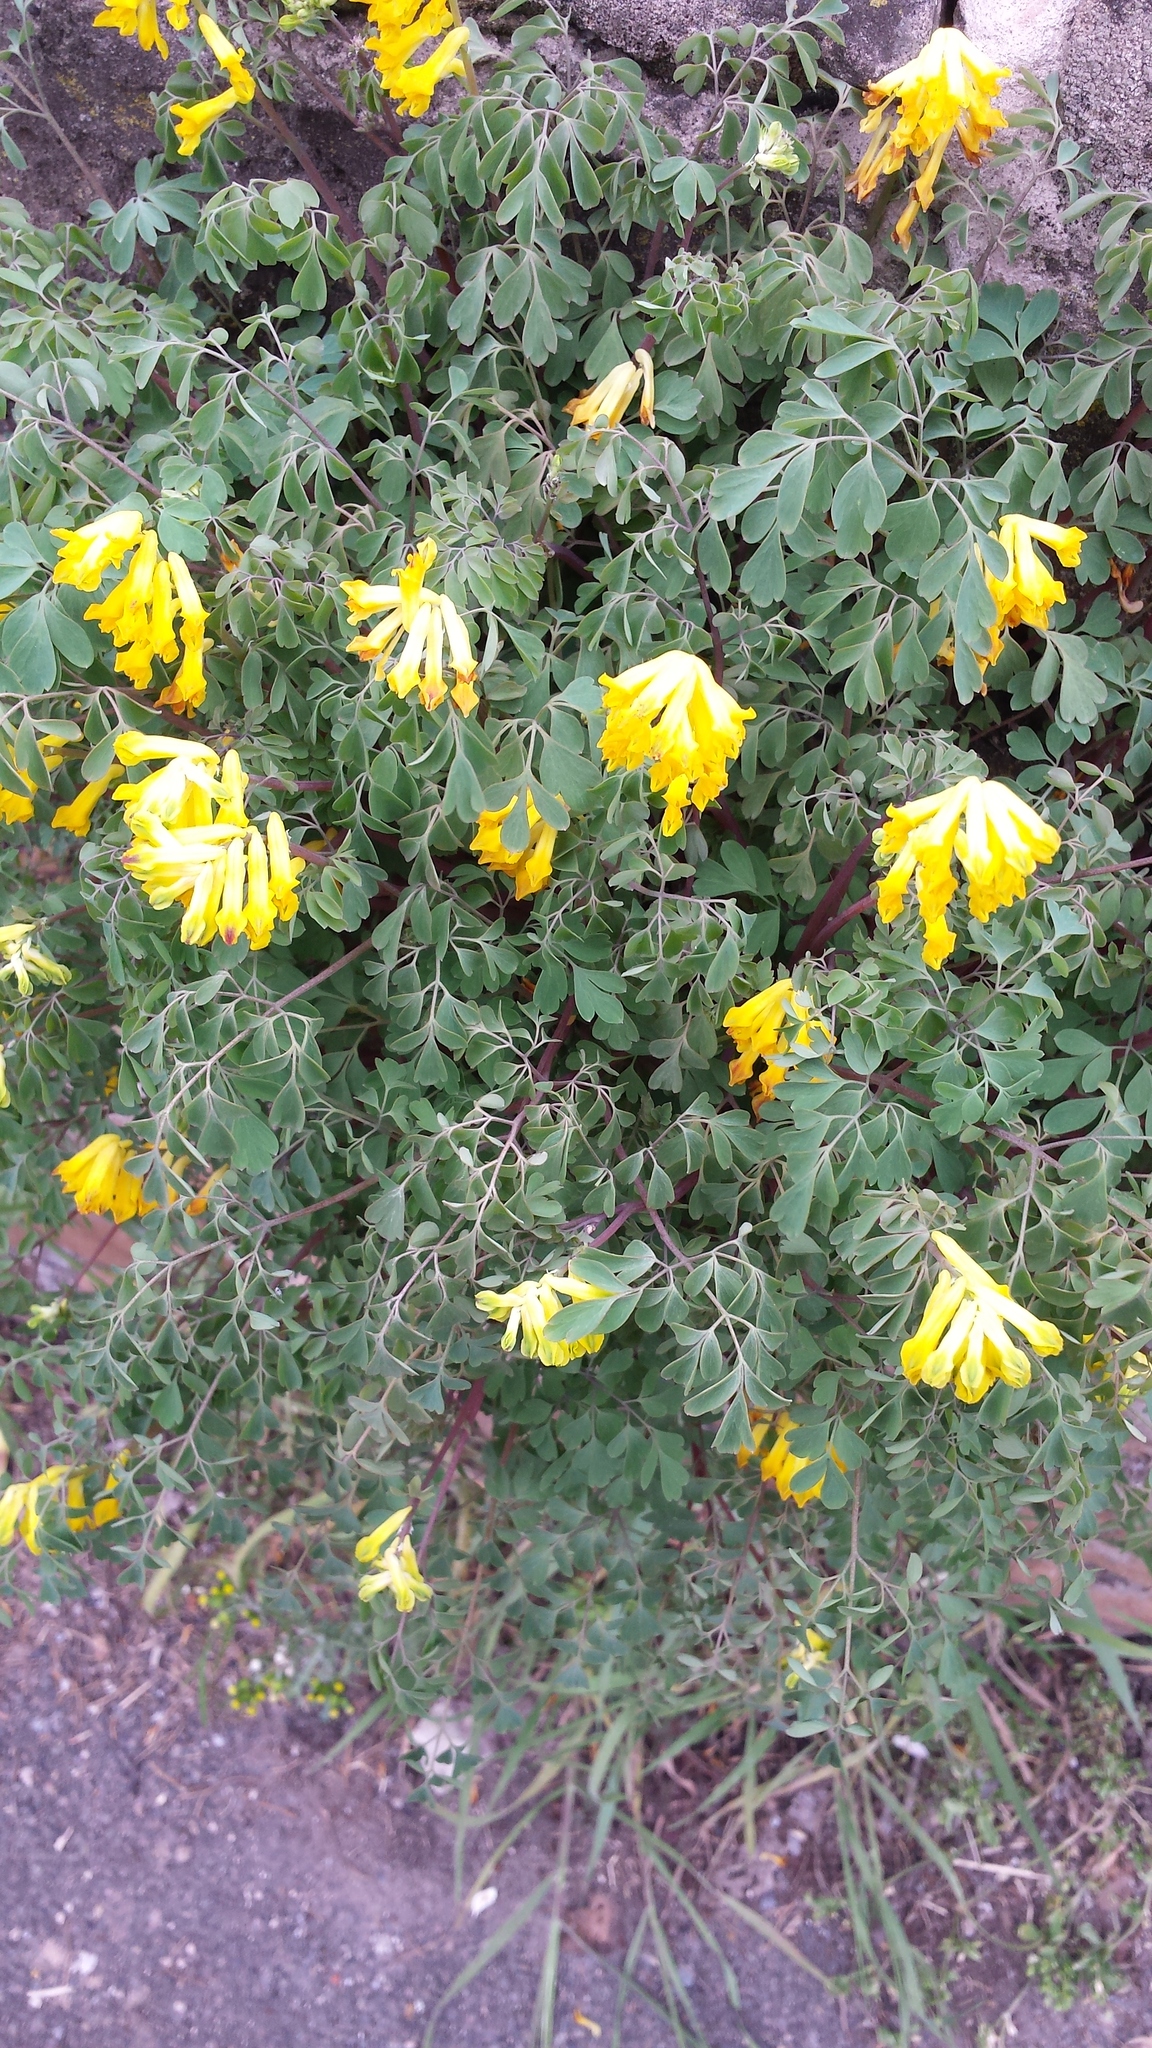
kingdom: Plantae
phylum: Tracheophyta
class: Magnoliopsida
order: Ranunculales
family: Papaveraceae
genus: Pseudofumaria
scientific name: Pseudofumaria lutea
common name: Yellow corydalis
